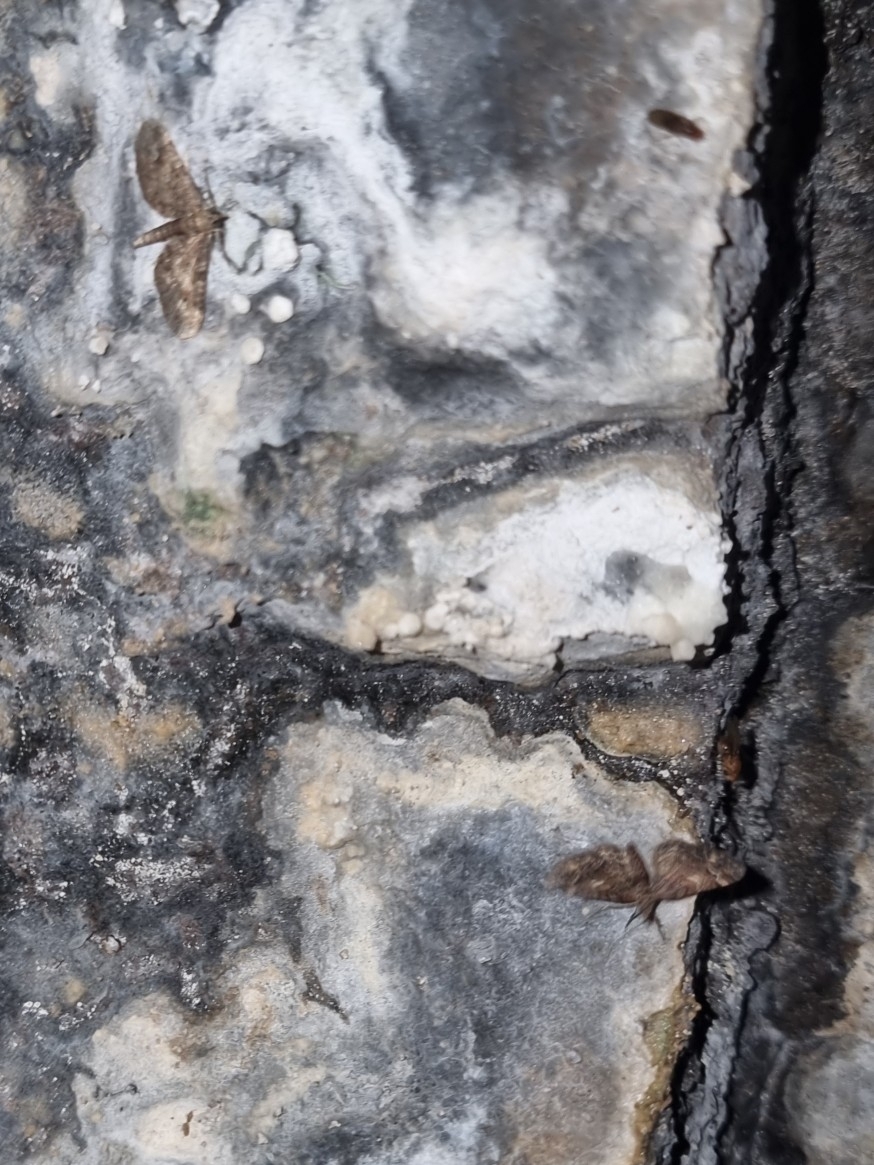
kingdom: Animalia
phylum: Arthropoda
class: Insecta
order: Lepidoptera
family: Geometridae
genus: Gymnoscelis
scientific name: Gymnoscelis insulariata
